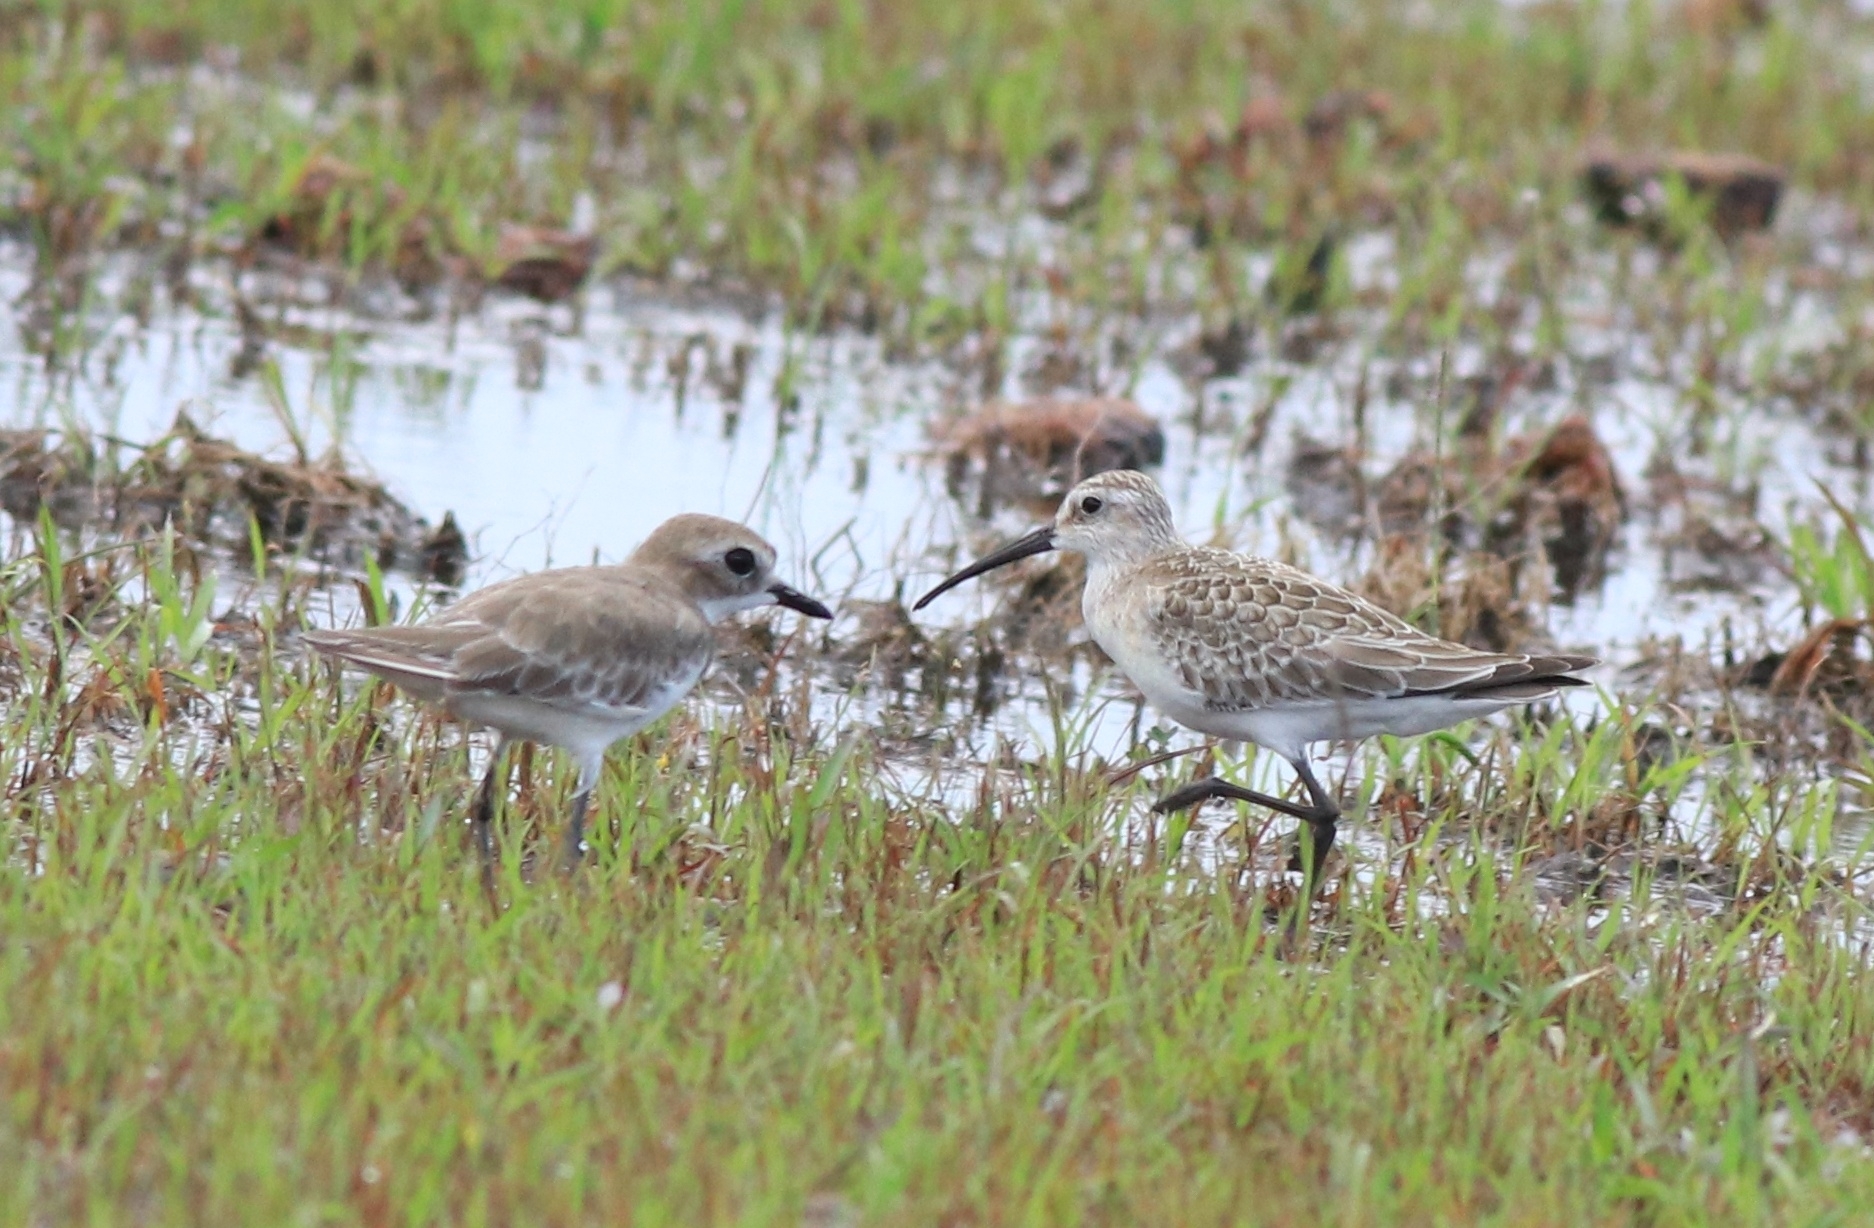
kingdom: Animalia
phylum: Chordata
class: Aves
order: Charadriiformes
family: Charadriidae
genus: Anarhynchus
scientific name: Anarhynchus
